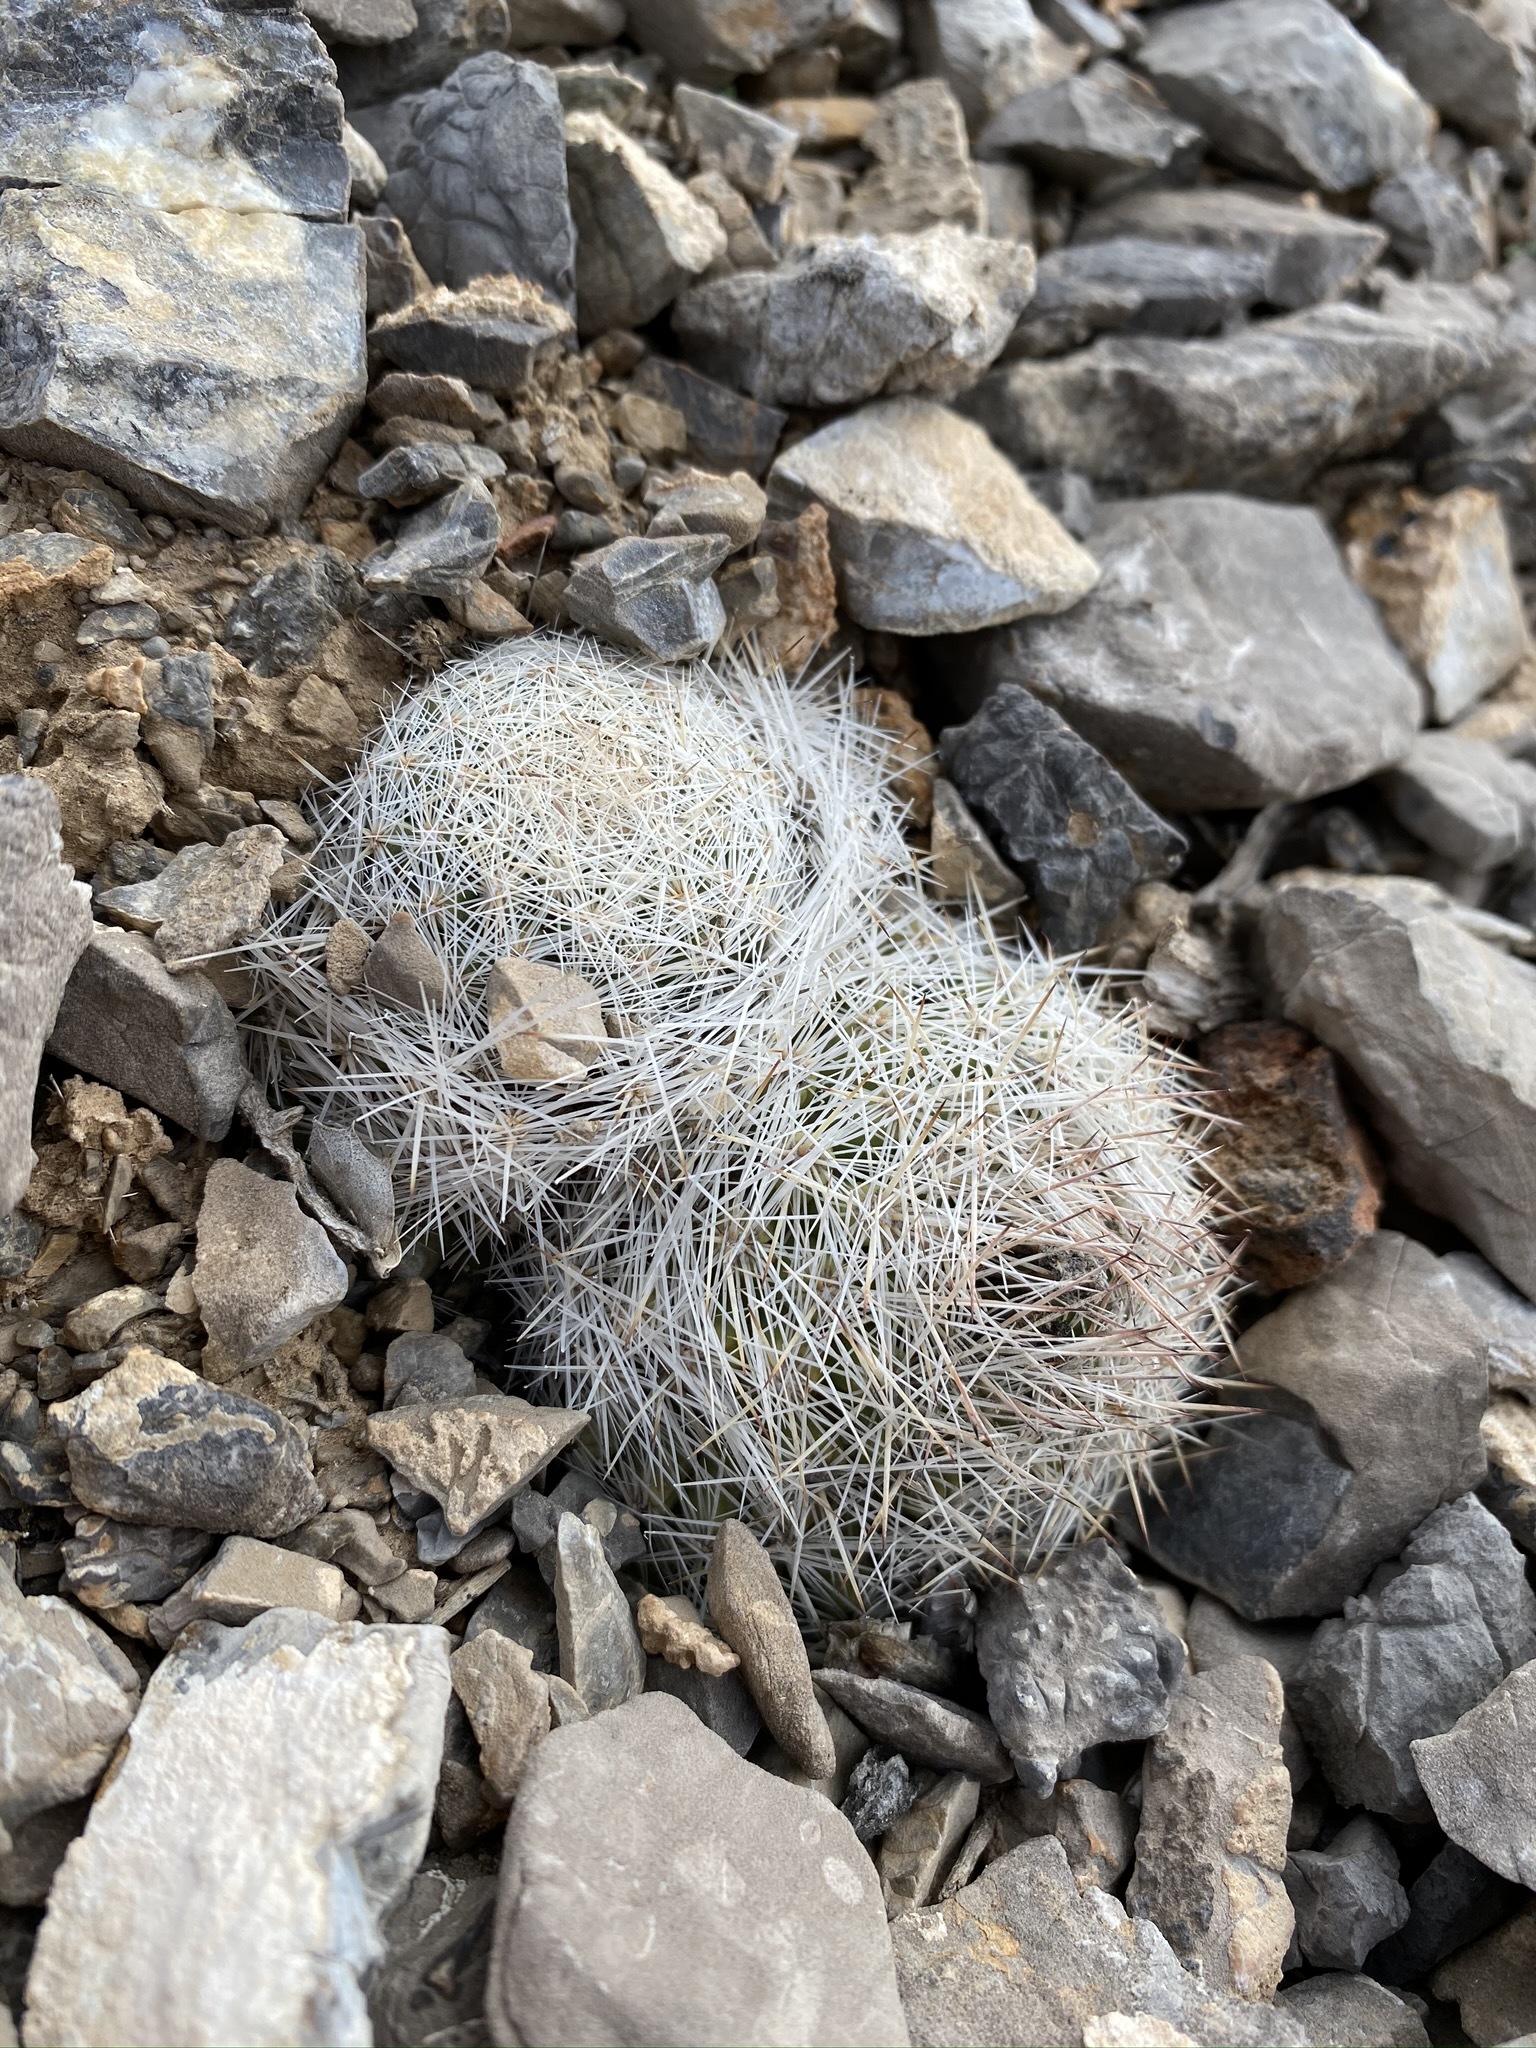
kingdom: Plantae
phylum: Tracheophyta
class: Magnoliopsida
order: Caryophyllales
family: Cactaceae
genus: Pelecyphora
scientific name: Pelecyphora dasyacantha
